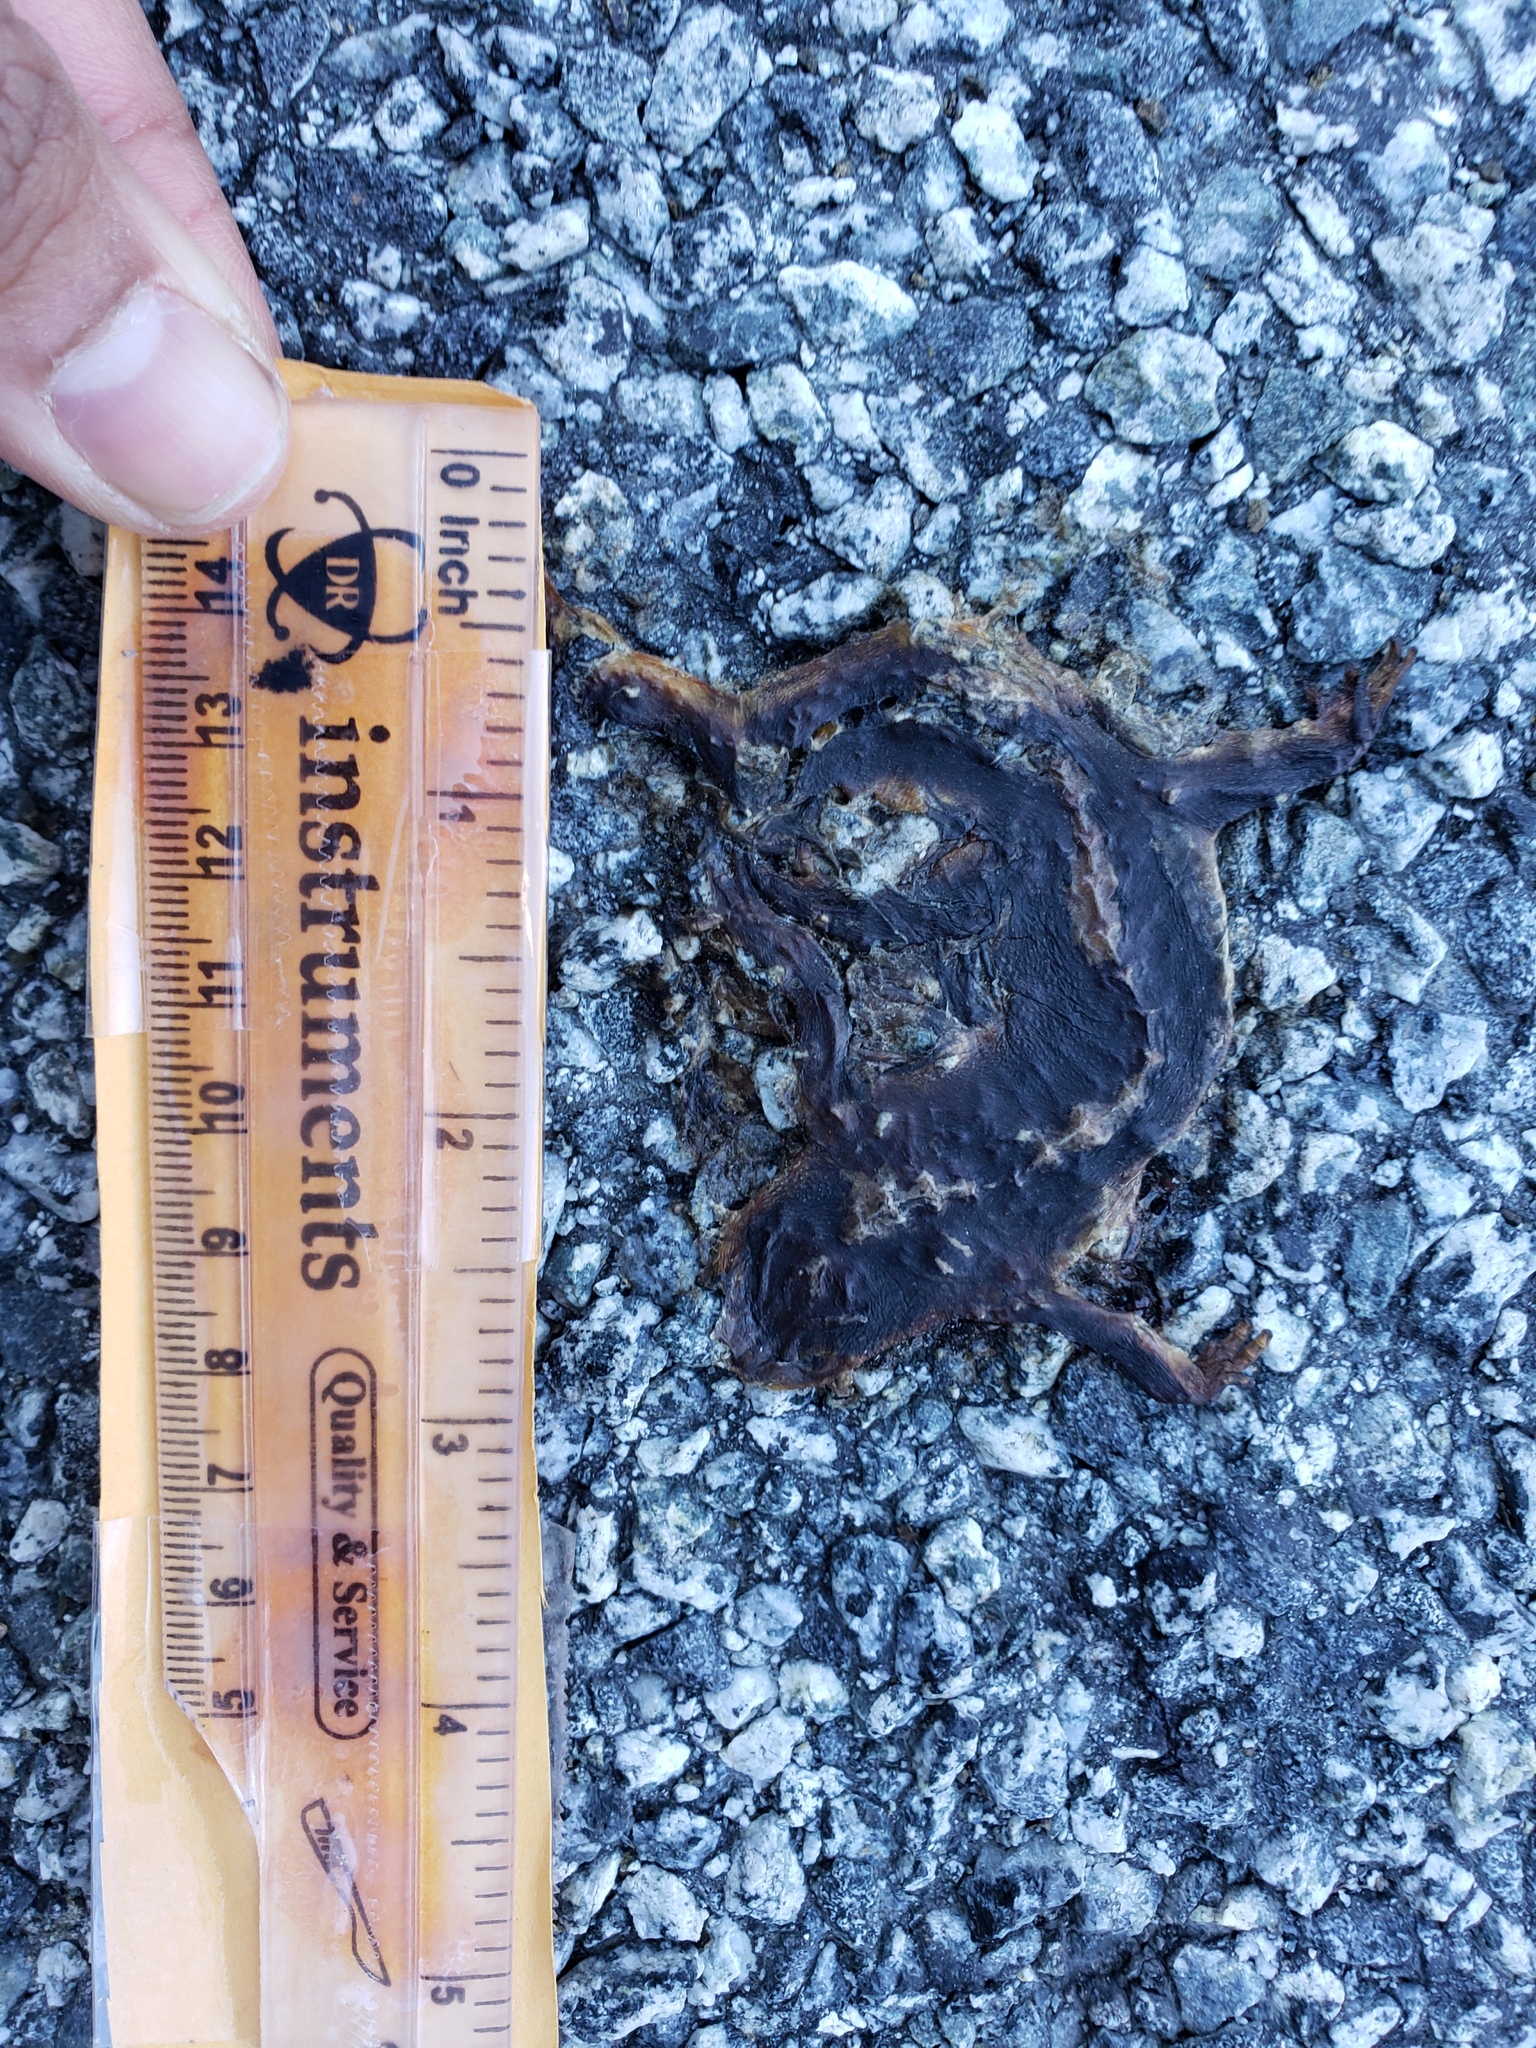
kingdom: Animalia
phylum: Chordata
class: Amphibia
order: Caudata
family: Salamandridae
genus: Taricha
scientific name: Taricha
